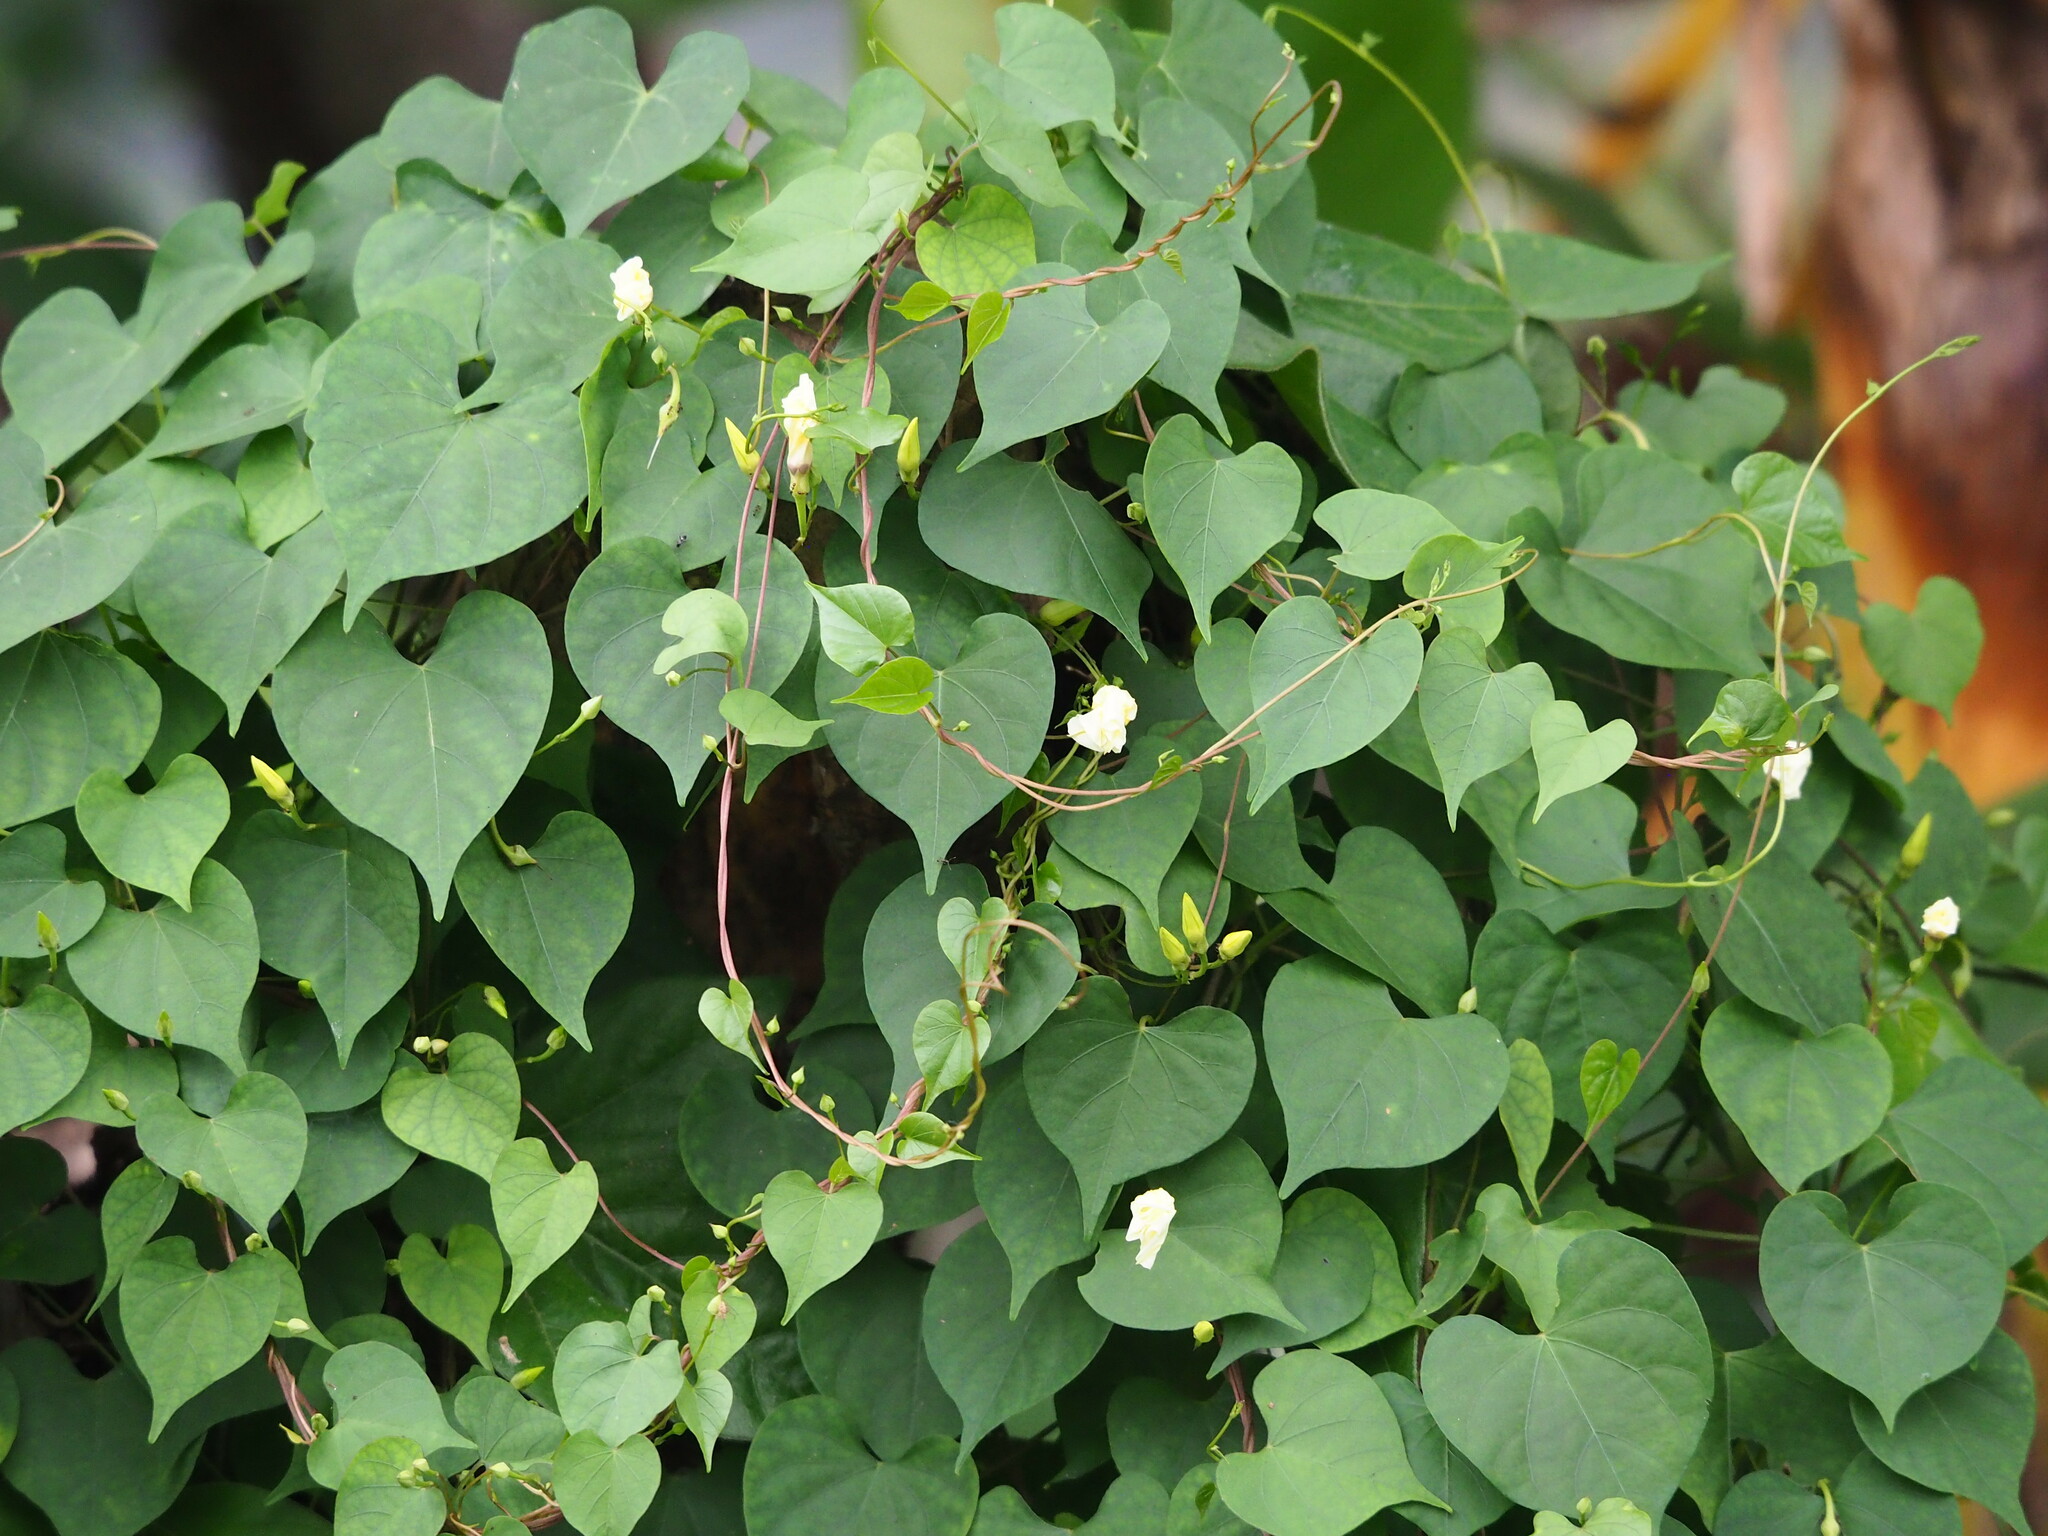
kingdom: Plantae
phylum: Tracheophyta
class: Magnoliopsida
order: Solanales
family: Convolvulaceae
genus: Ipomoea
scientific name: Ipomoea obscura
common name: Obscure morning-glory
